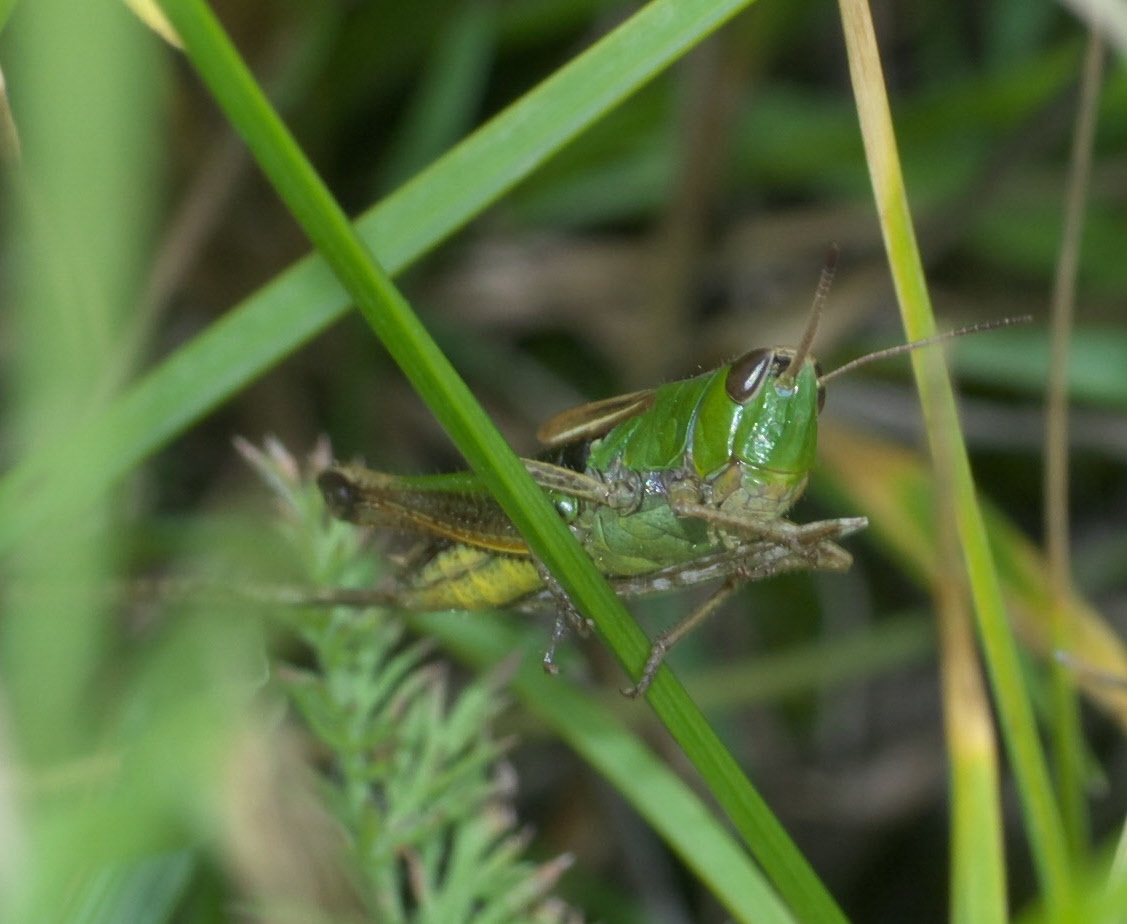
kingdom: Animalia
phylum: Arthropoda
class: Insecta
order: Orthoptera
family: Acrididae
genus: Pseudochorthippus
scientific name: Pseudochorthippus curtipennis
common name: Marsh meadow grasshopper
